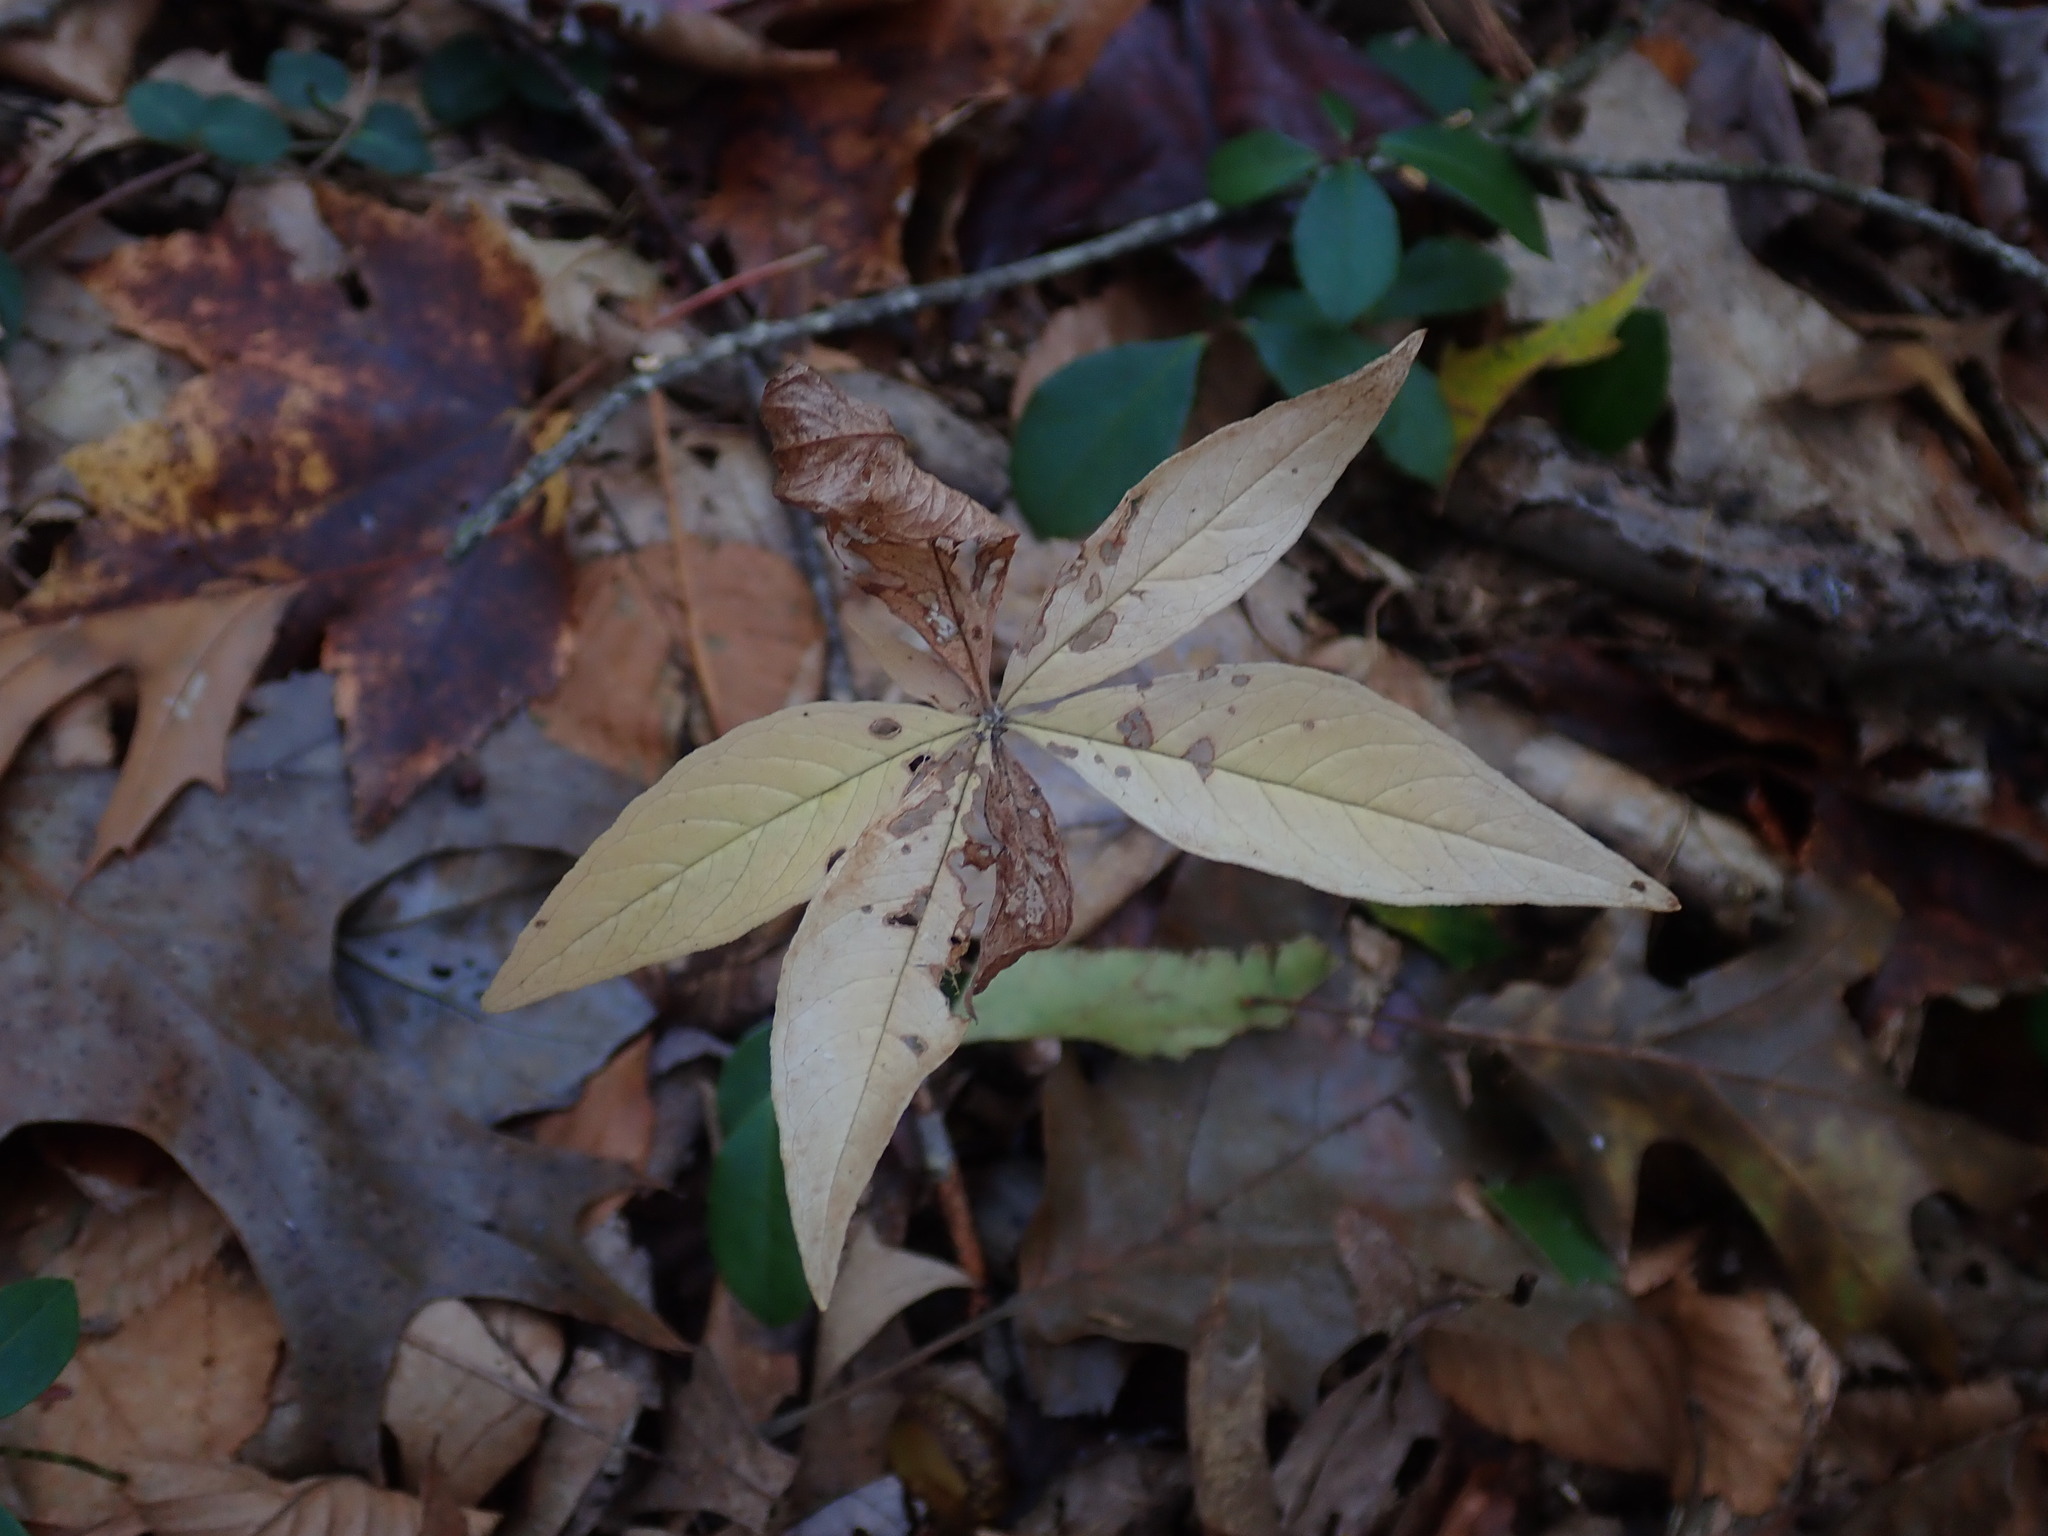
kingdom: Plantae
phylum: Tracheophyta
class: Magnoliopsida
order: Ericales
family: Primulaceae
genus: Lysimachia
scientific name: Lysimachia borealis
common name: American starflower
